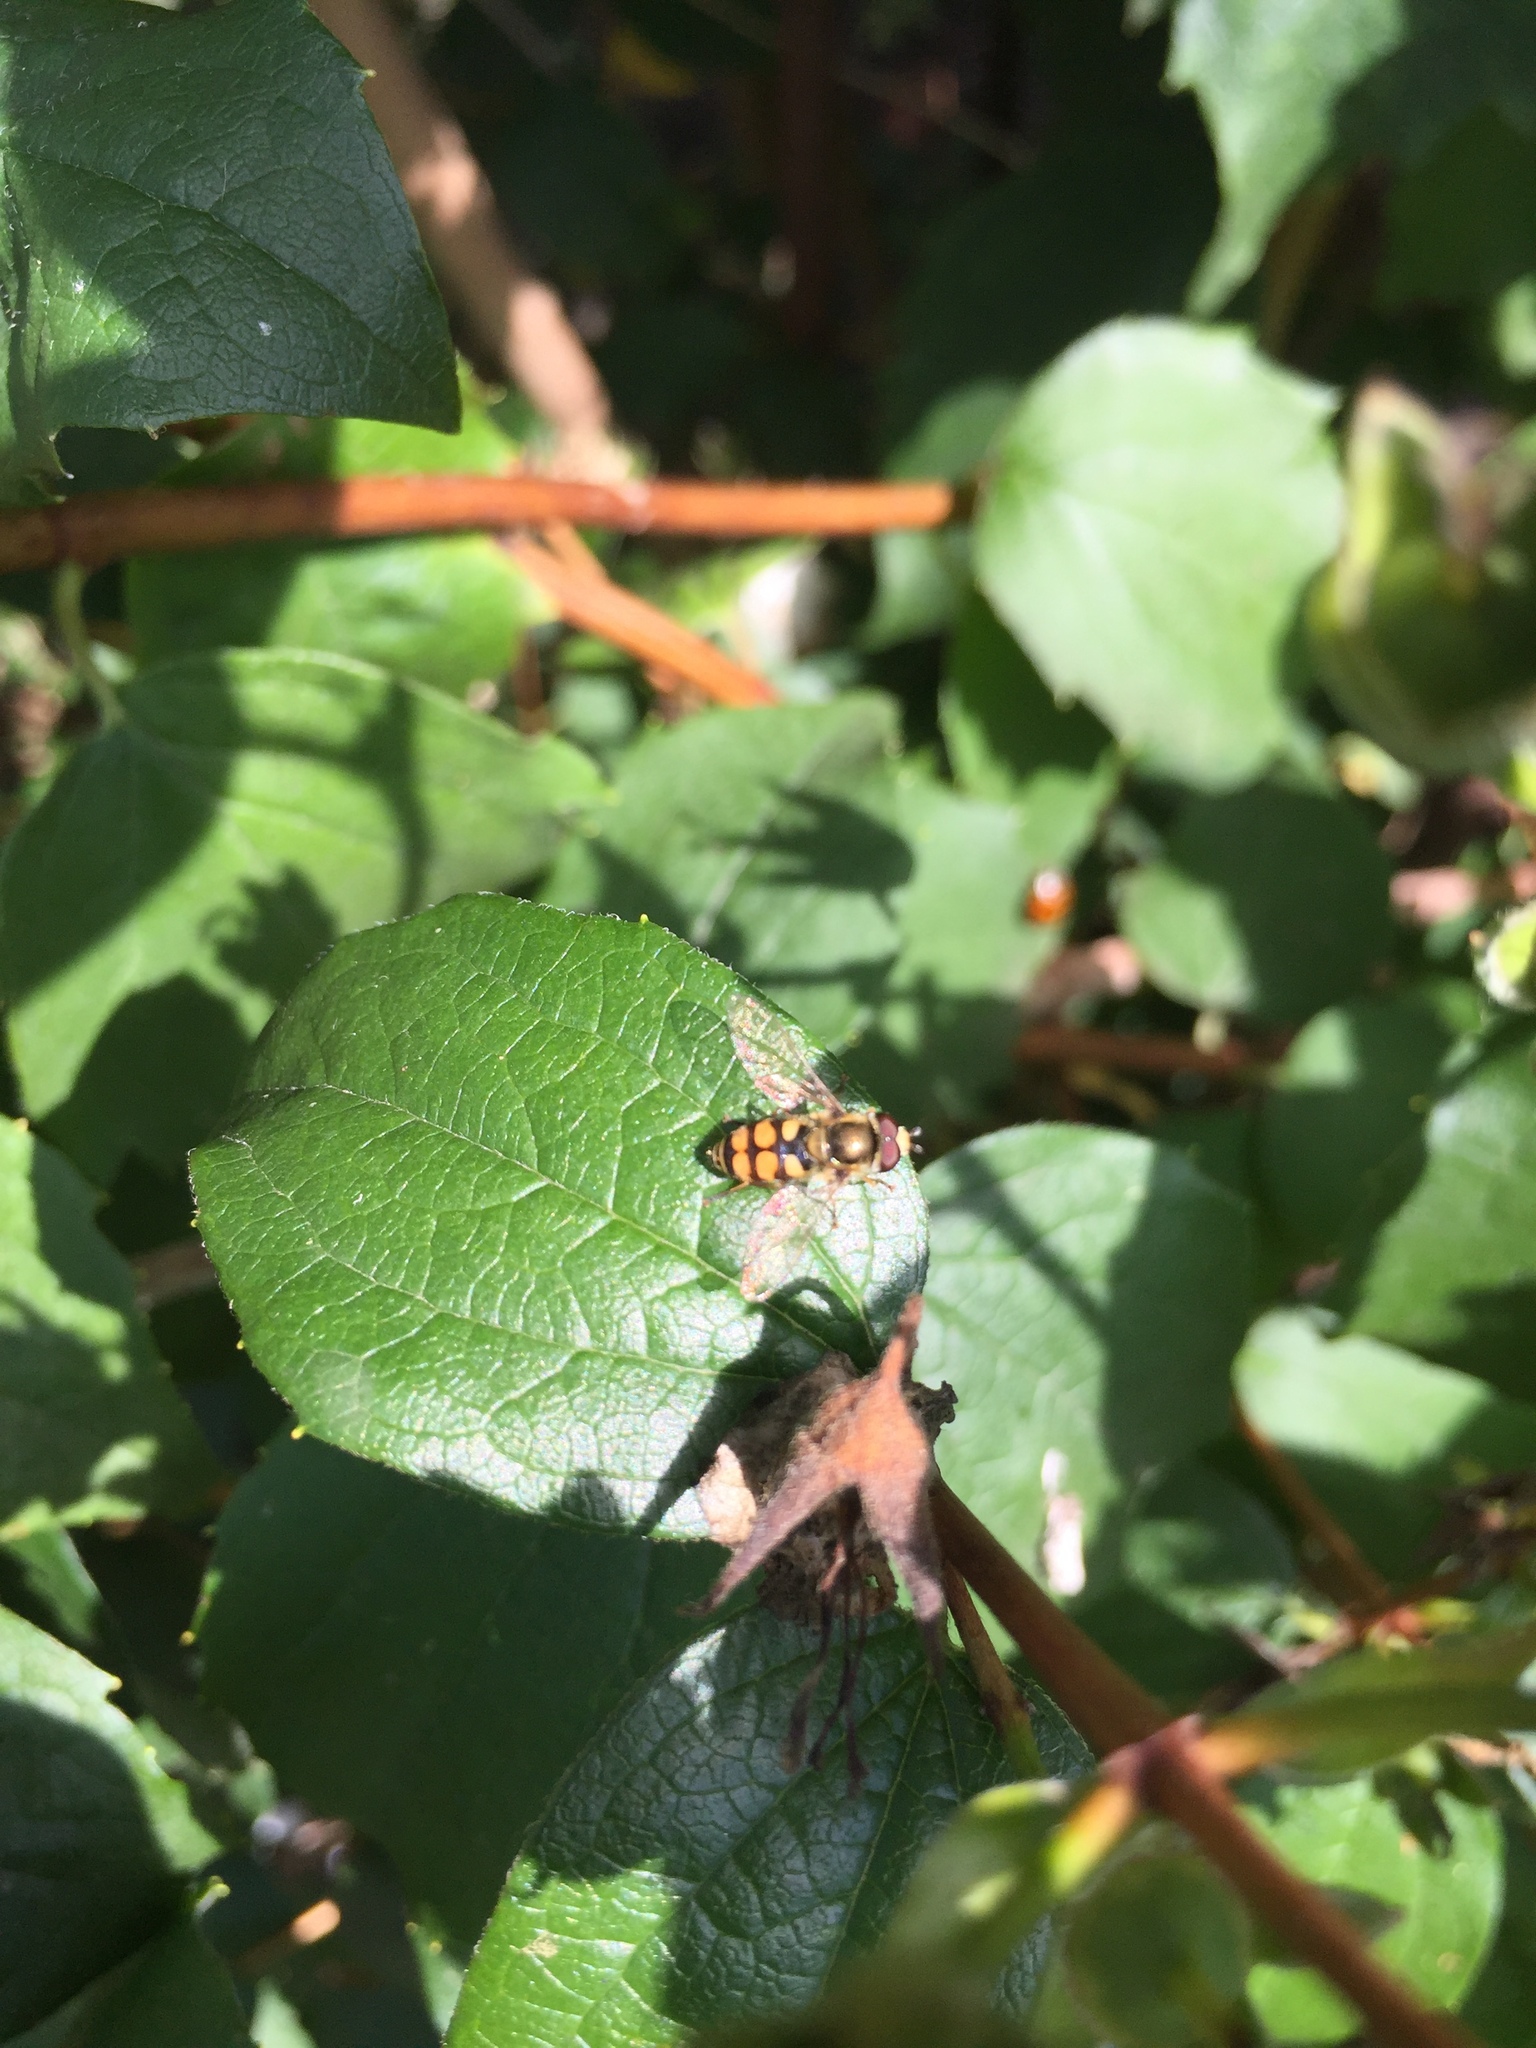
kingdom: Animalia
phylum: Arthropoda
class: Insecta
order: Diptera
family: Syrphidae
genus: Eupeodes
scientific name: Eupeodes corollae
